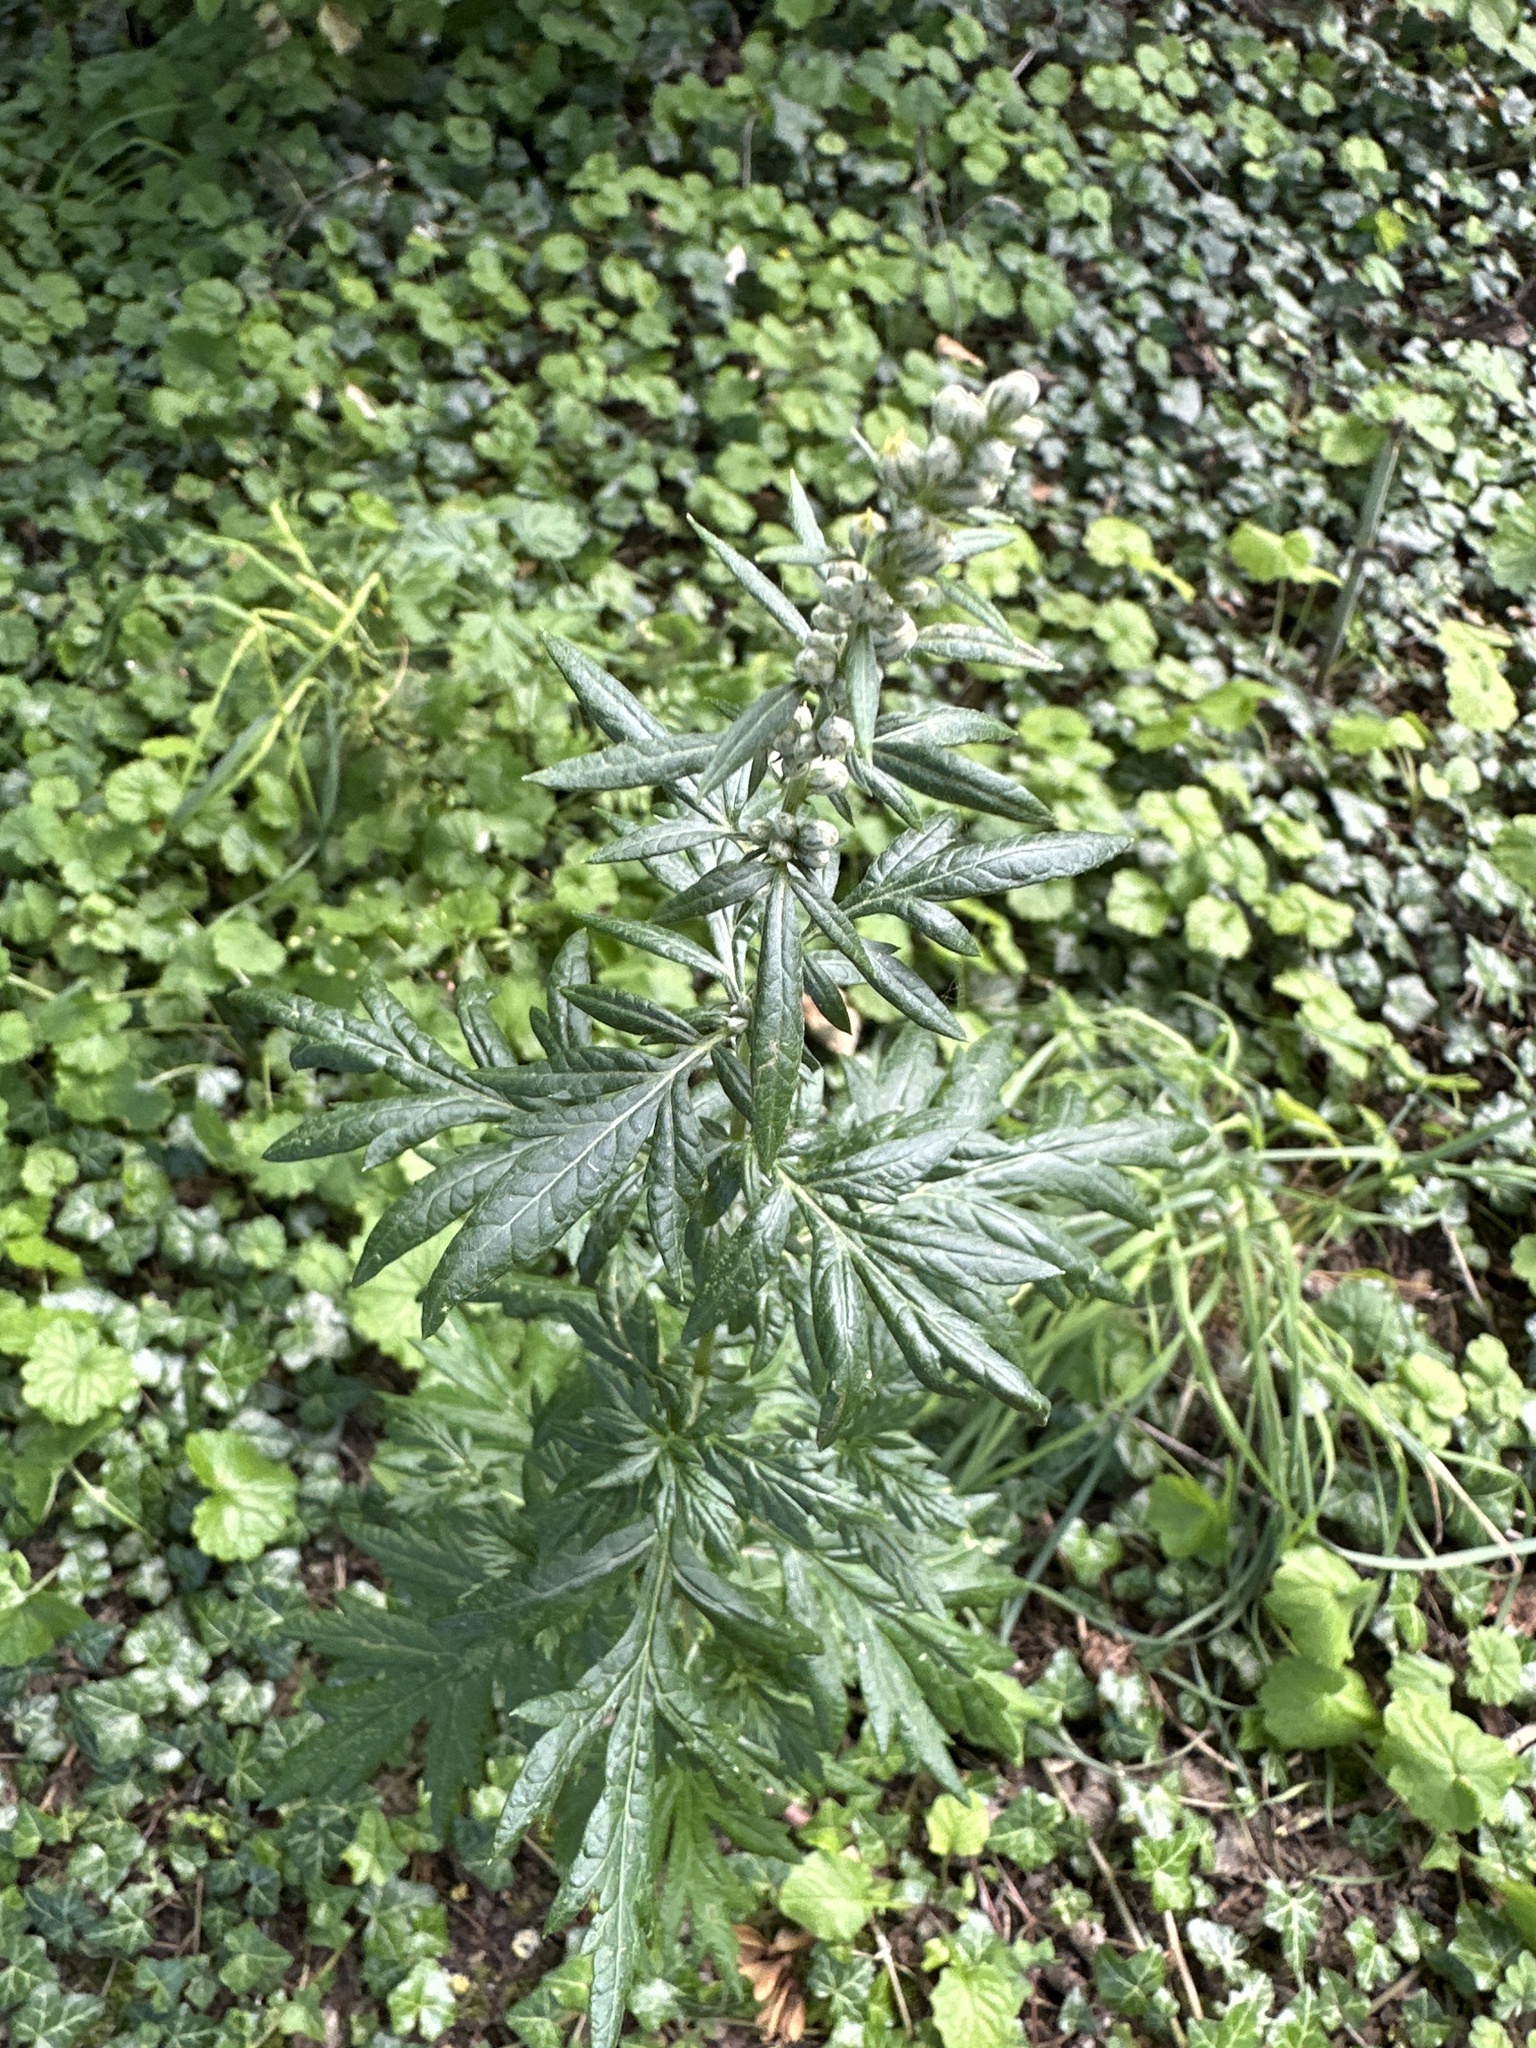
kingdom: Plantae
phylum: Tracheophyta
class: Magnoliopsida
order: Asterales
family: Asteraceae
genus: Artemisia
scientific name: Artemisia vulgaris
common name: Mugwort
